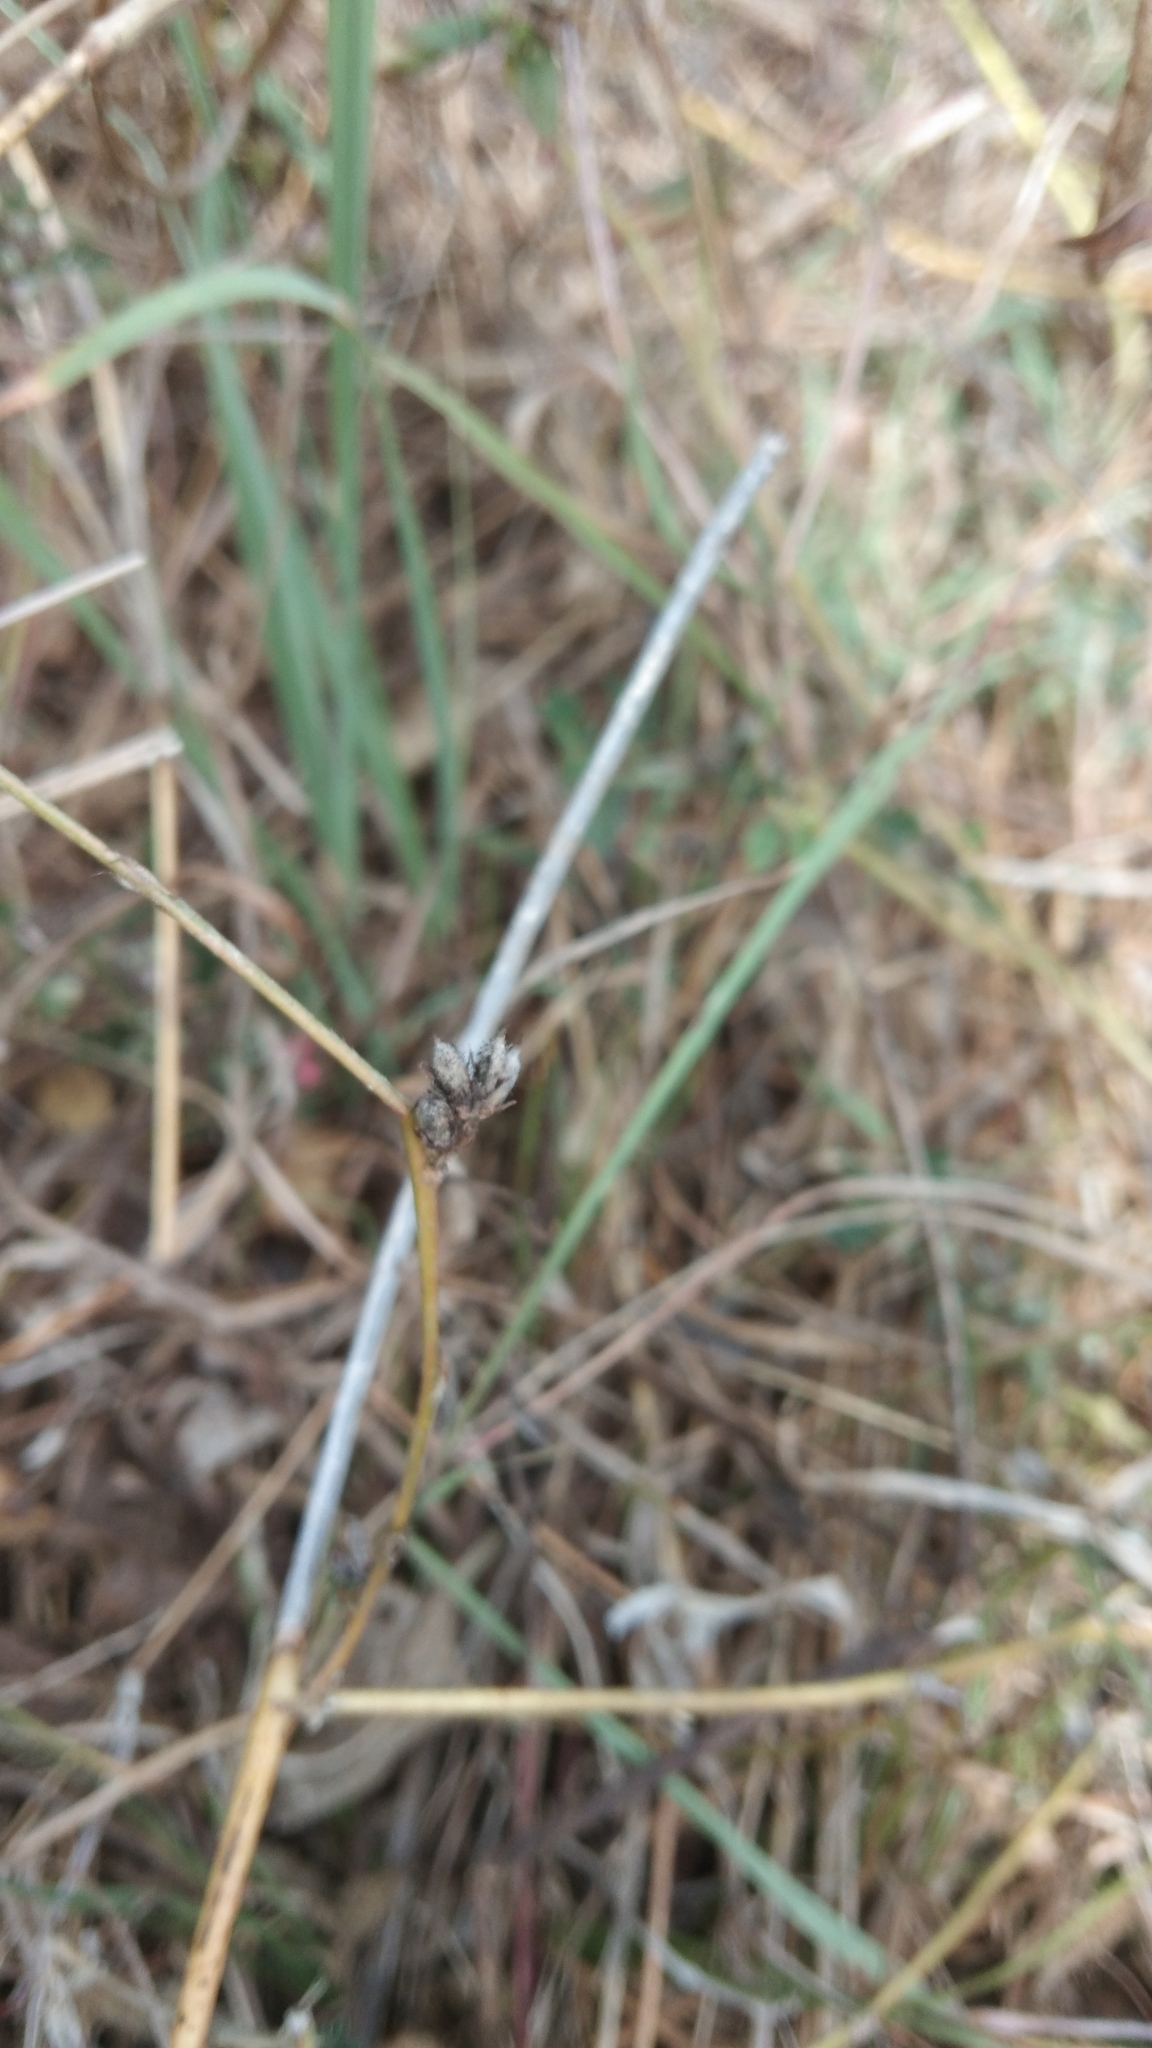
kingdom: Animalia
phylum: Arthropoda
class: Insecta
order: Lepidoptera
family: Lycaenidae
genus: Freyeria
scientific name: Freyeria putli
